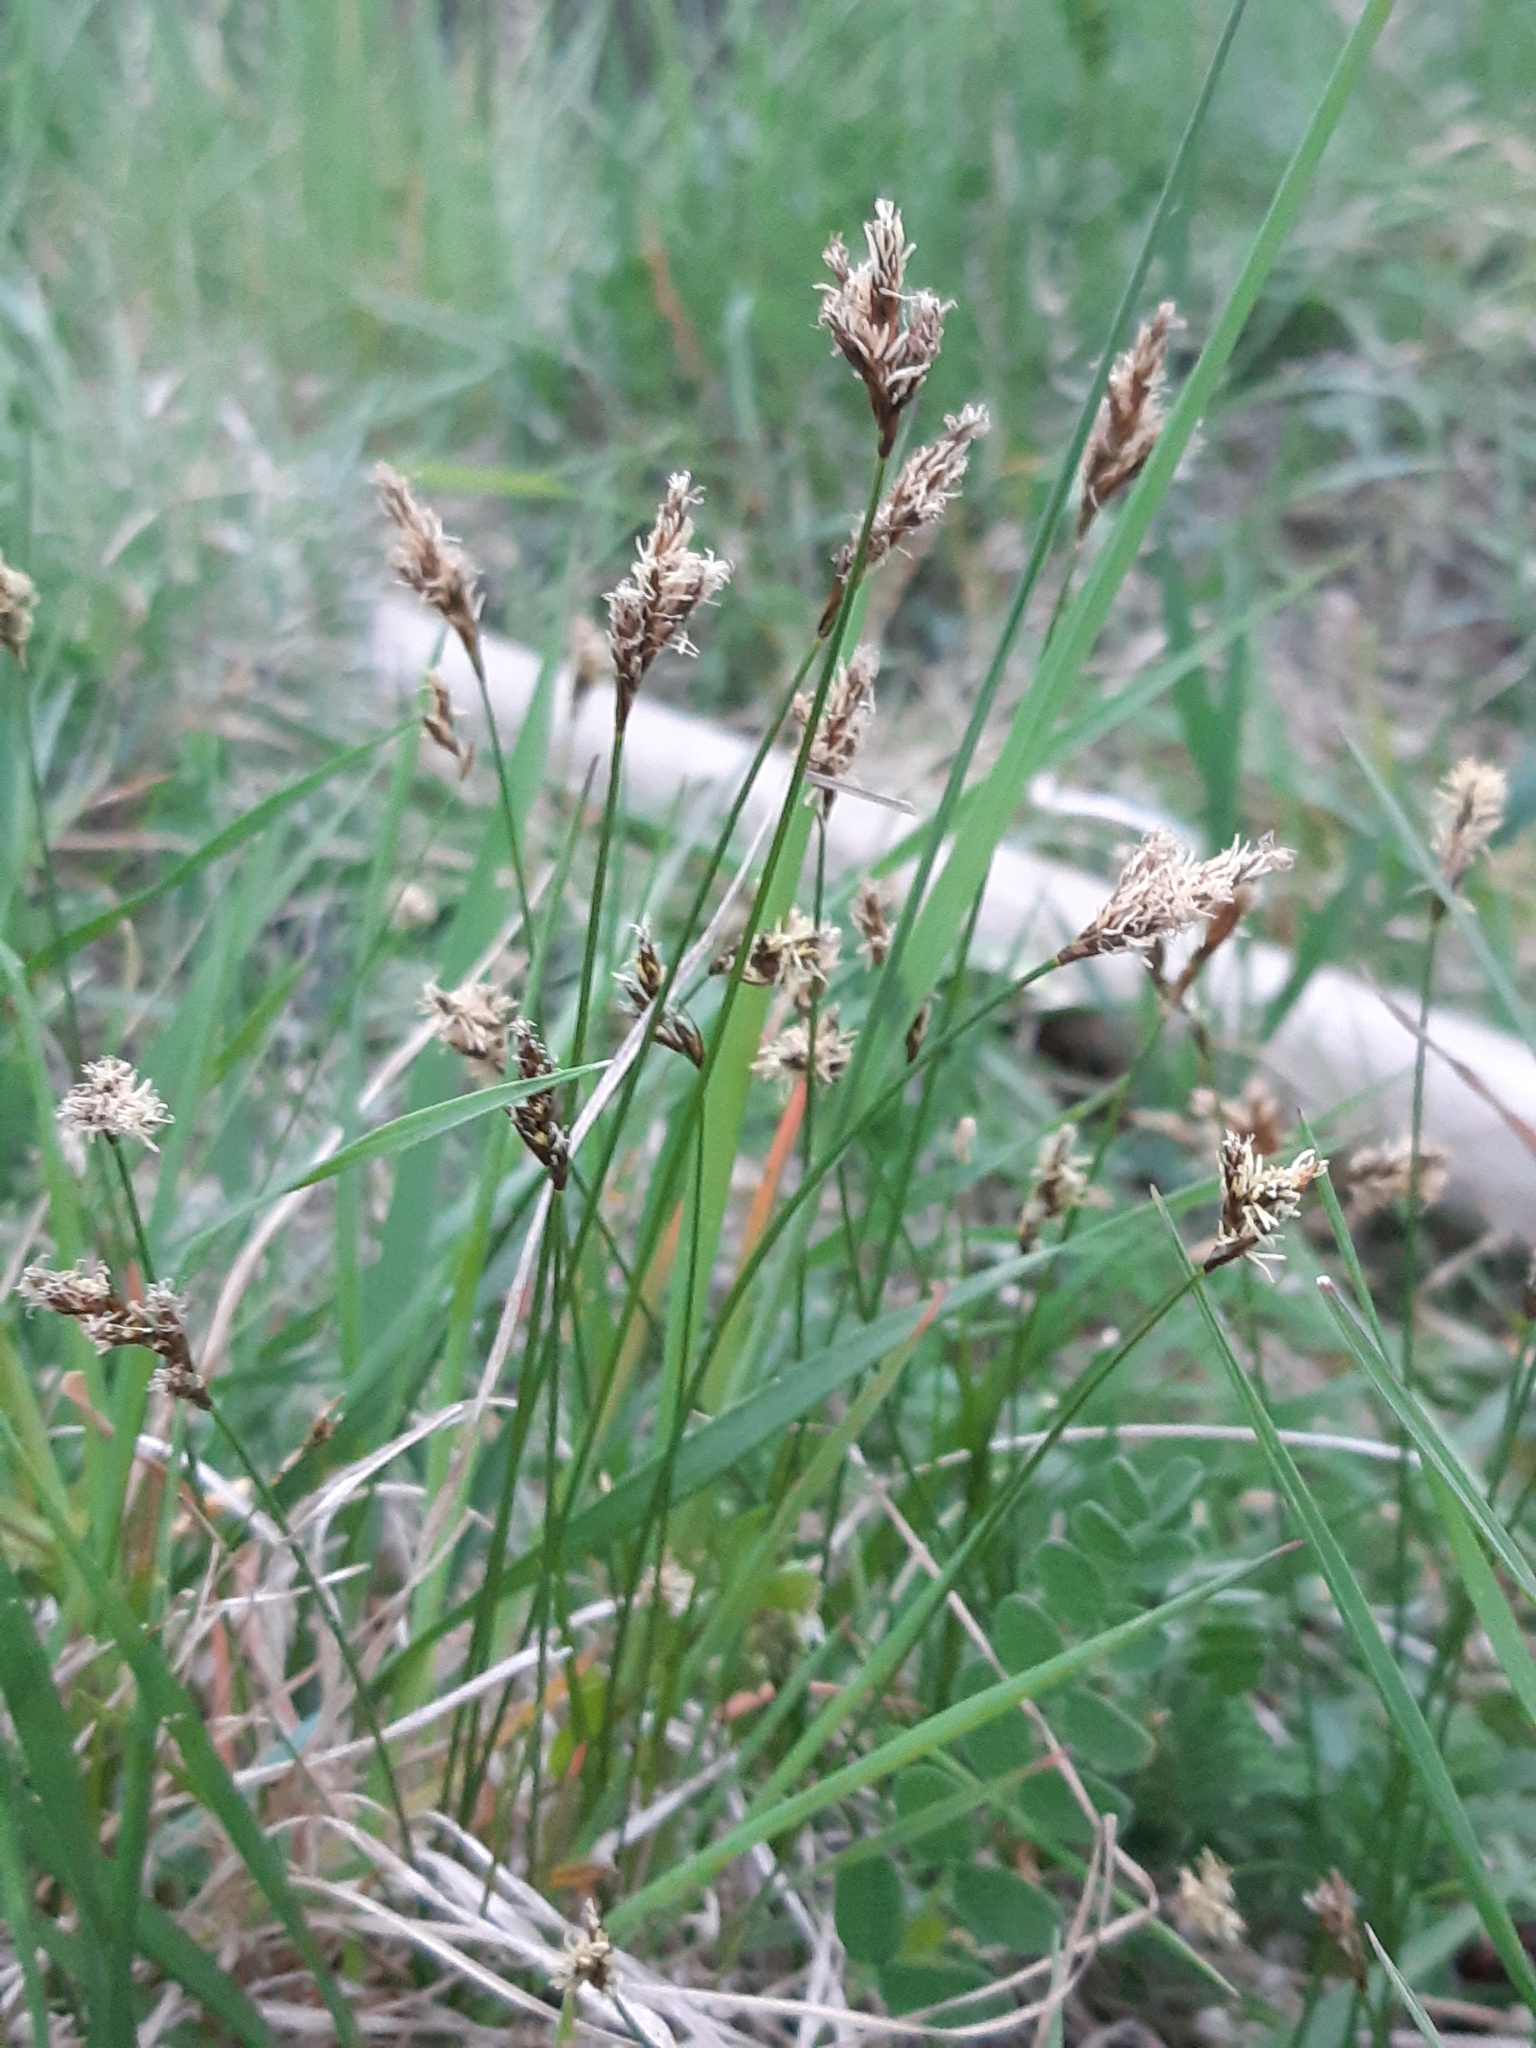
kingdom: Plantae
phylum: Tracheophyta
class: Liliopsida
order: Poales
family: Cyperaceae
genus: Carex
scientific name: Carex praecox
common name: Early sedge
